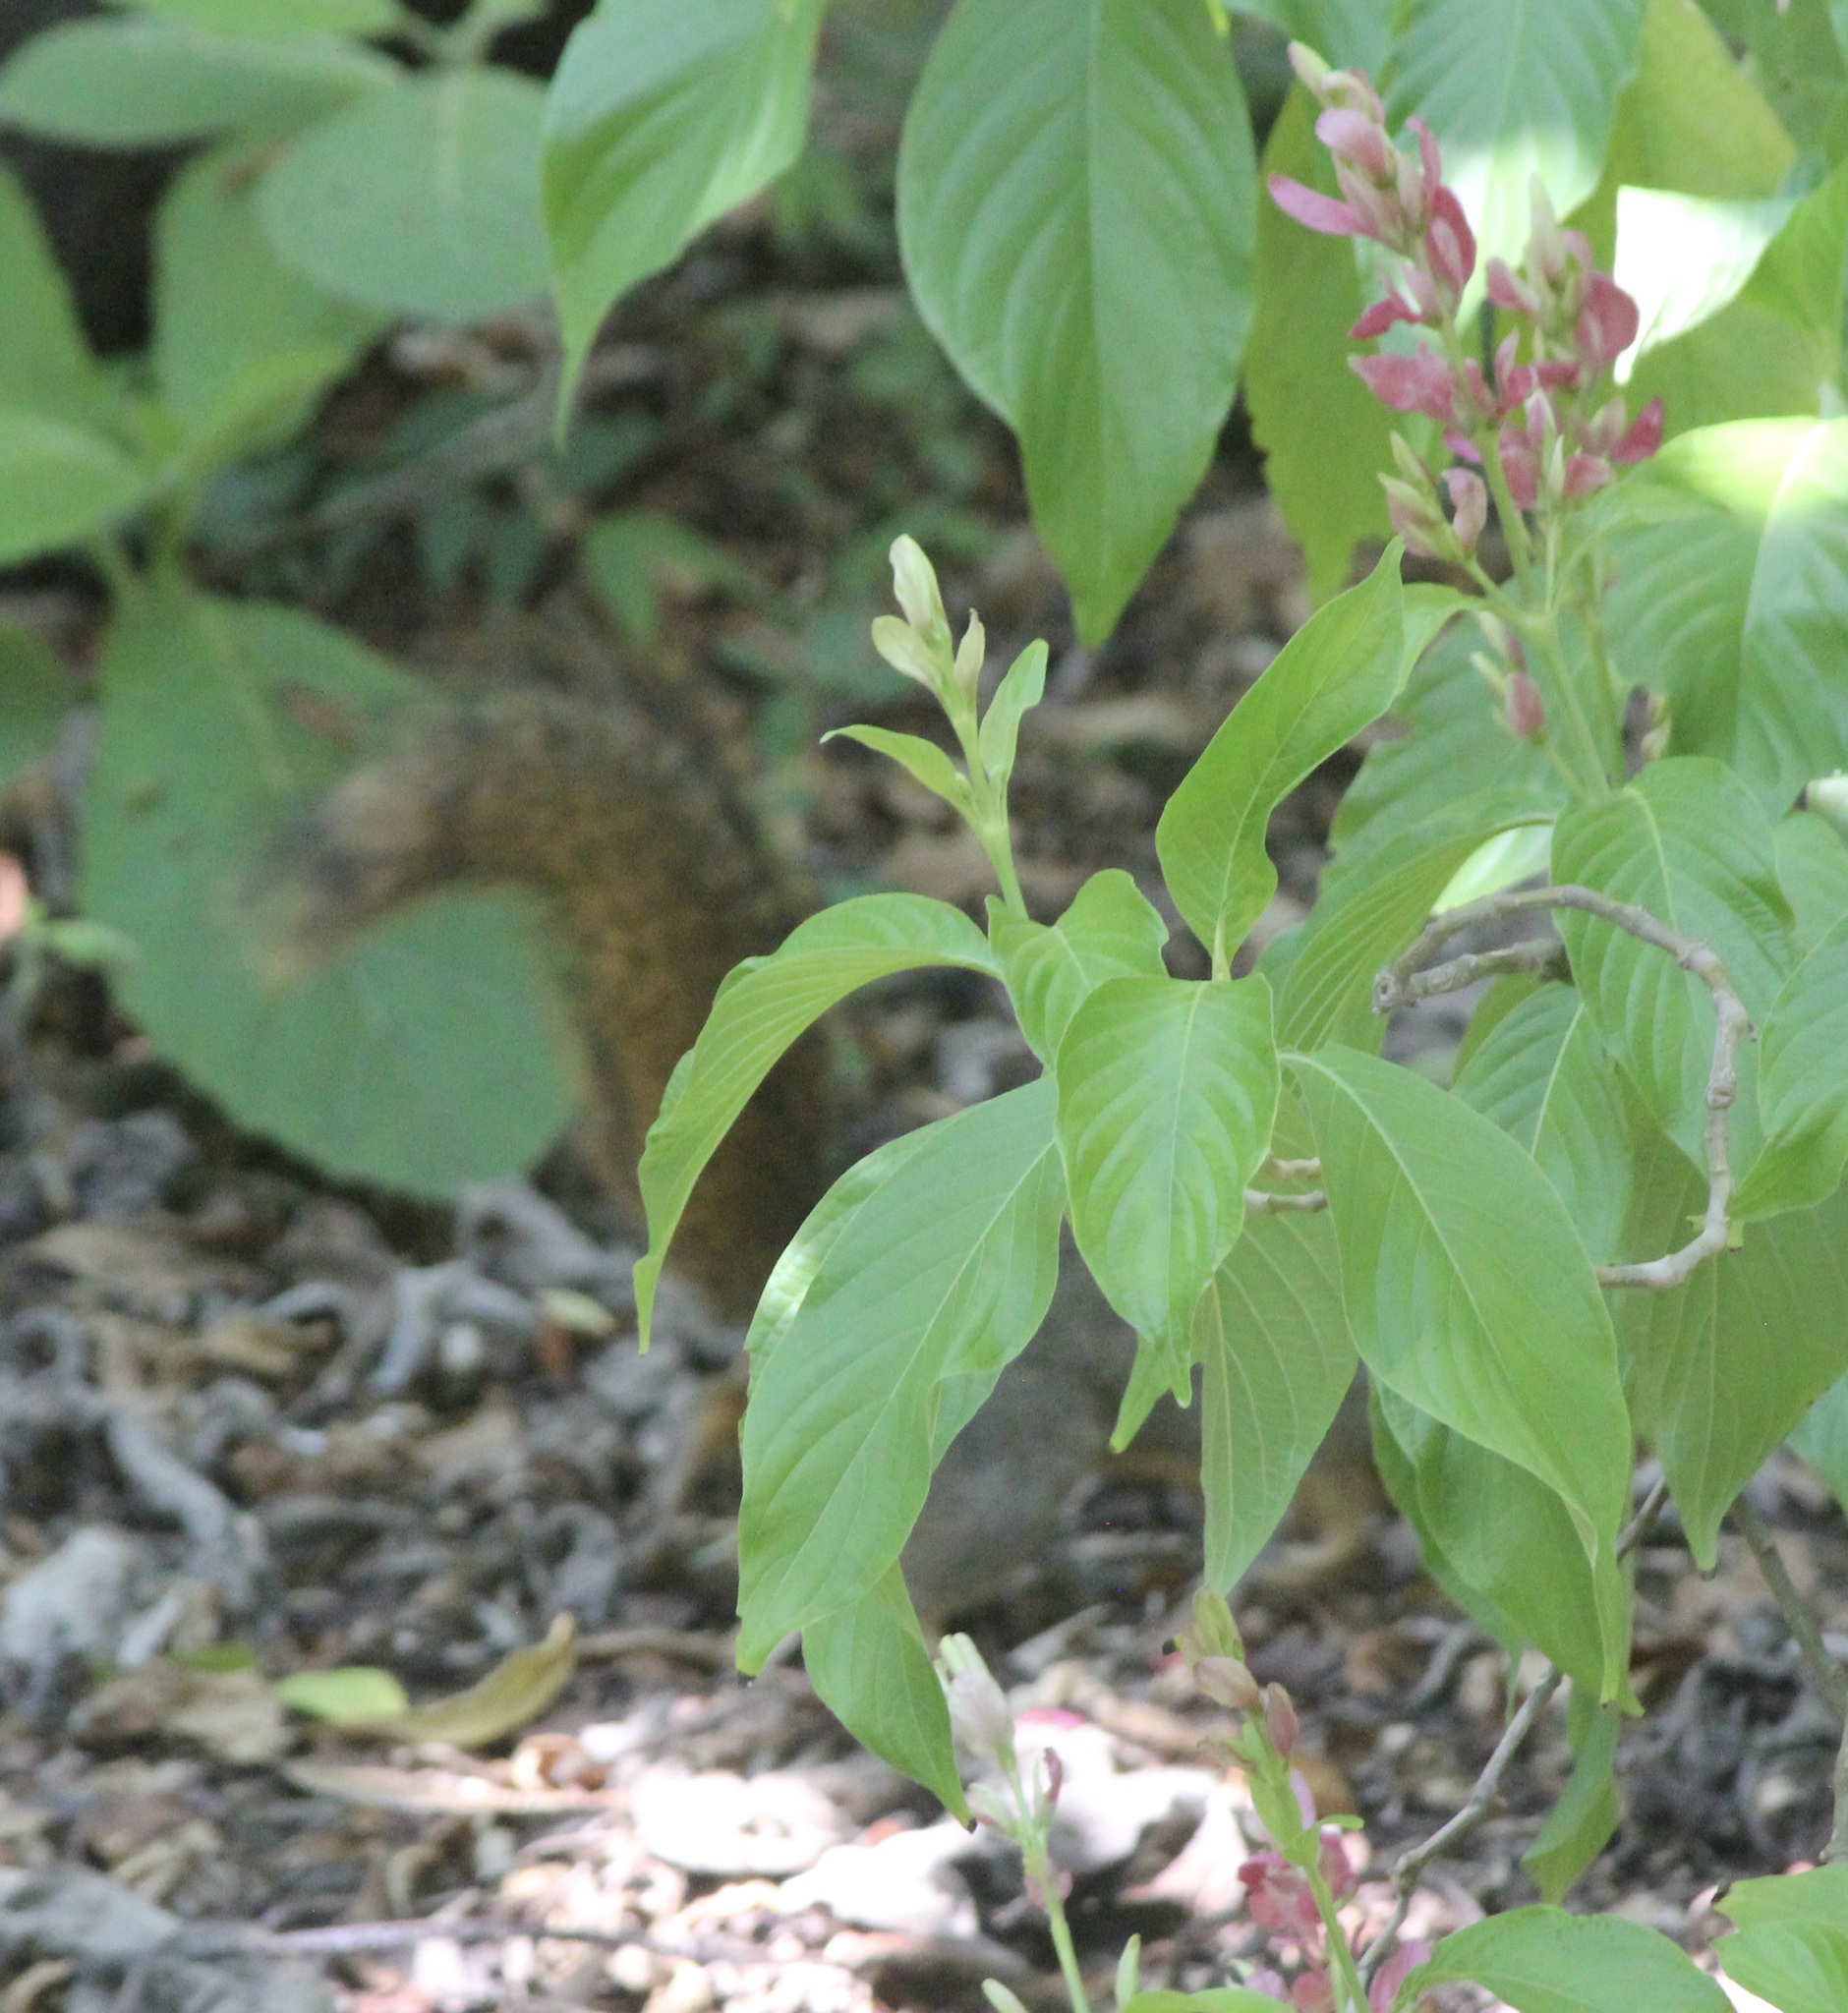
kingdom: Animalia
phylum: Chordata
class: Mammalia
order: Rodentia
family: Sciuridae
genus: Sciurus
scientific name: Sciurus niger
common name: Fox squirrel
